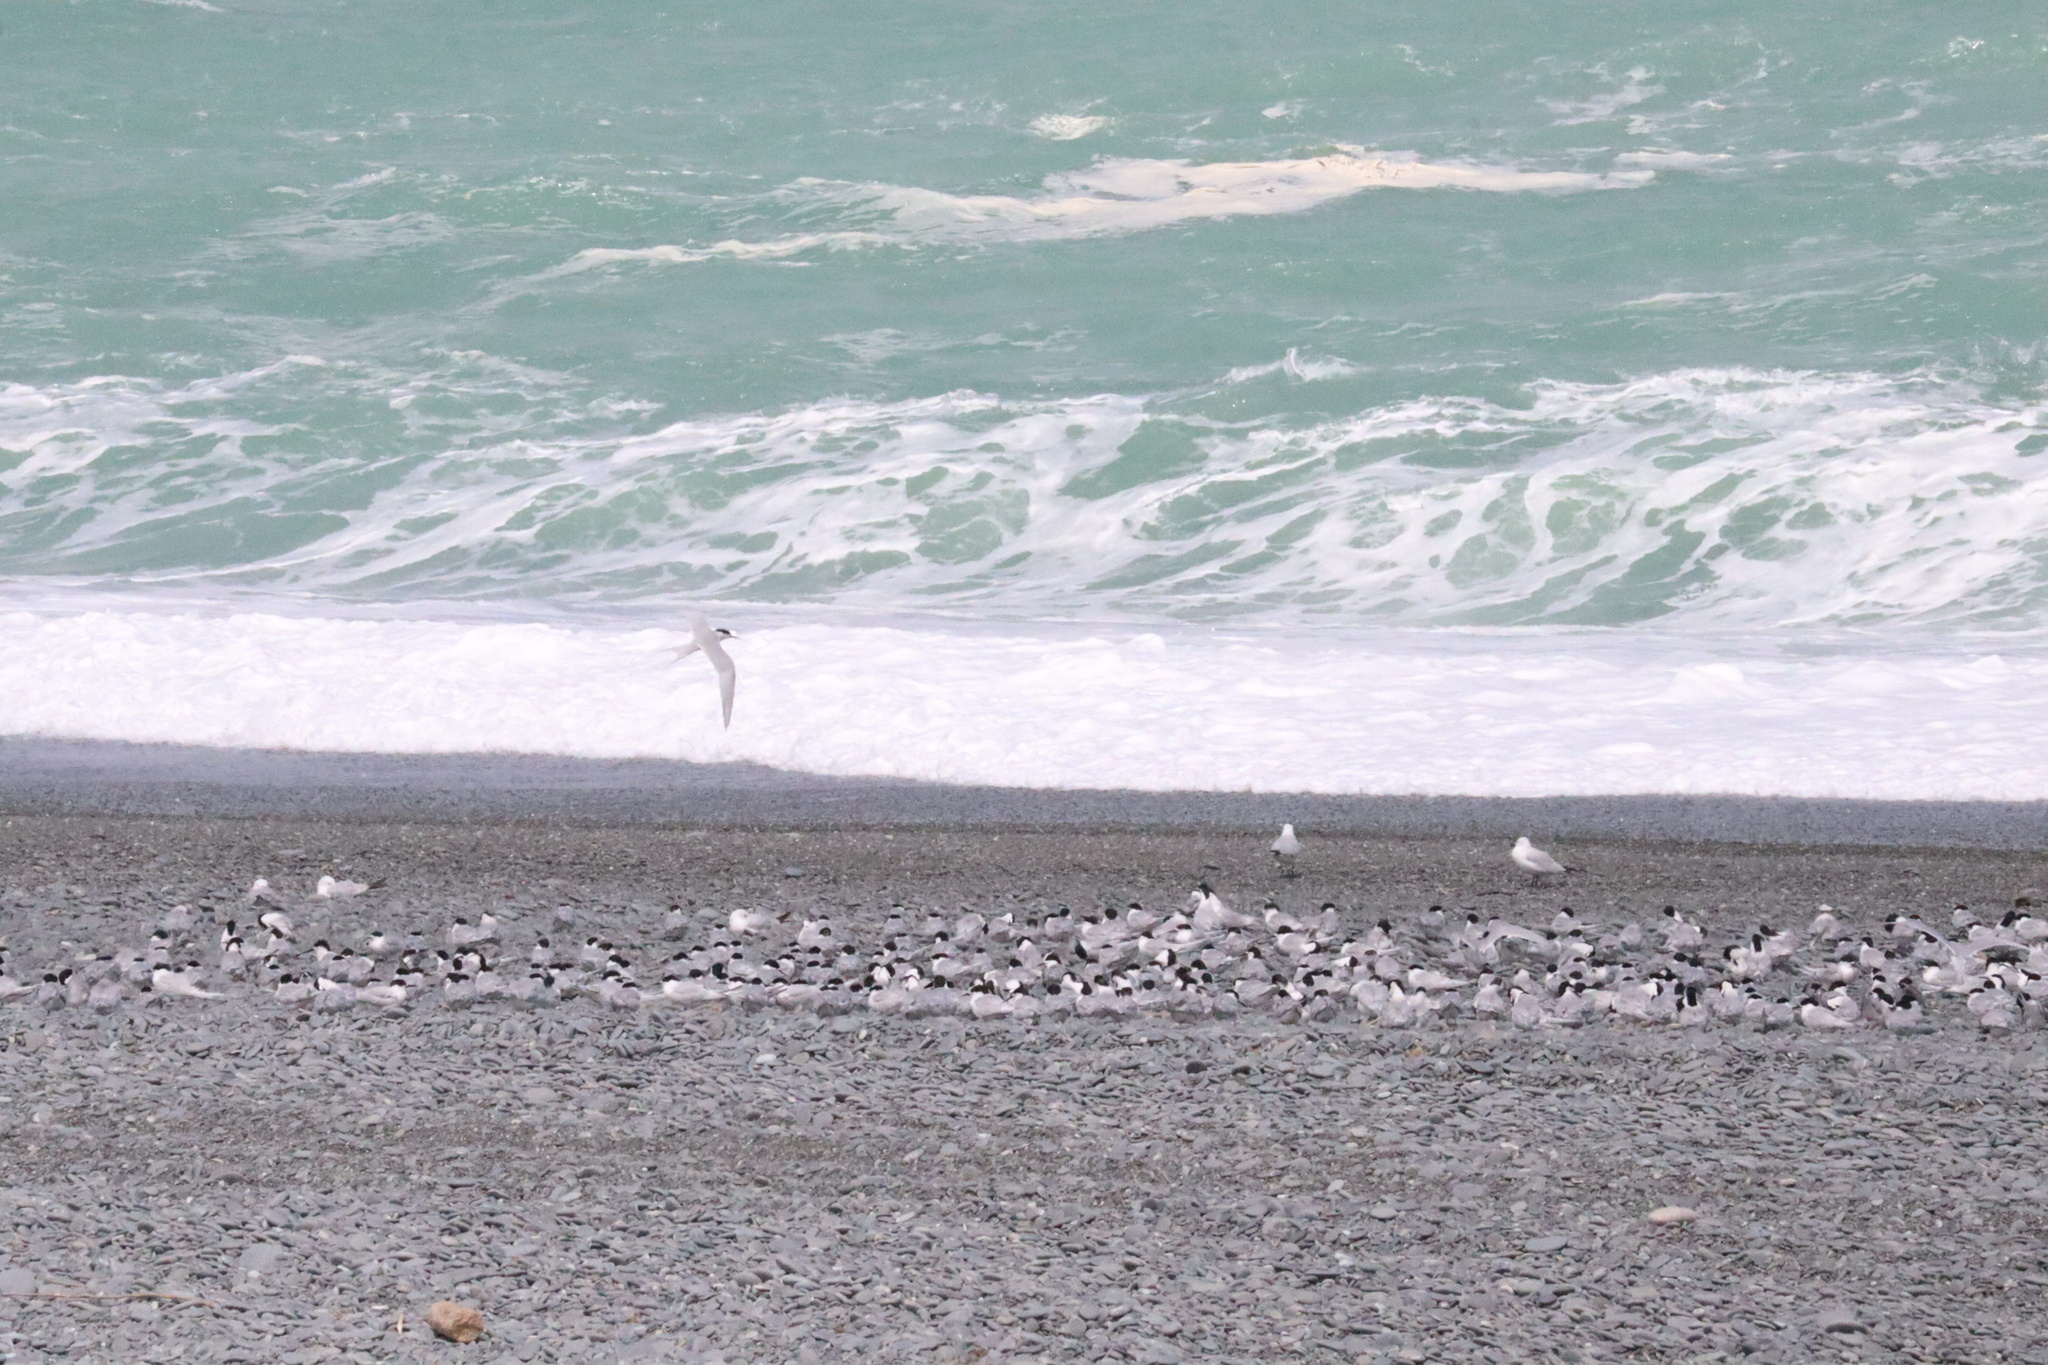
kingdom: Animalia
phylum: Chordata
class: Aves
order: Charadriiformes
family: Laridae
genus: Sterna
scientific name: Sterna striata
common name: White-fronted tern
